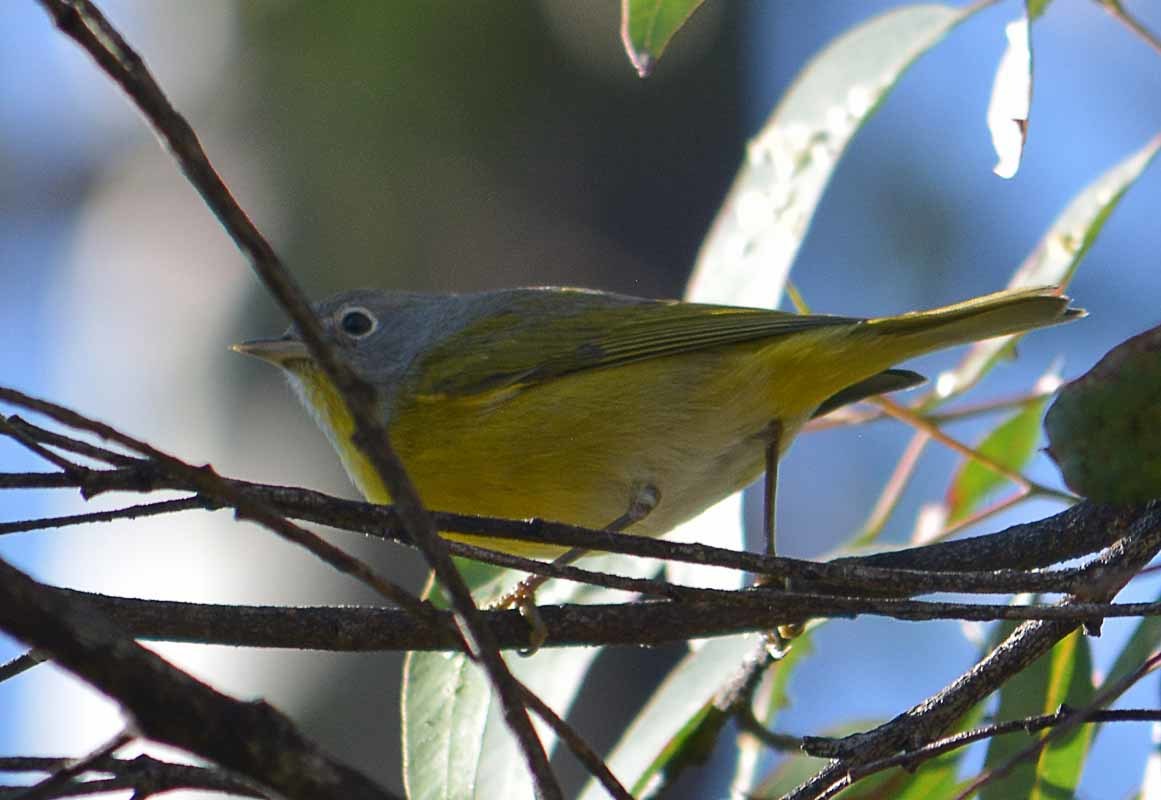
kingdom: Animalia
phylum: Chordata
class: Aves
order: Passeriformes
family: Parulidae
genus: Leiothlypis
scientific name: Leiothlypis ruficapilla
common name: Nashville warbler
